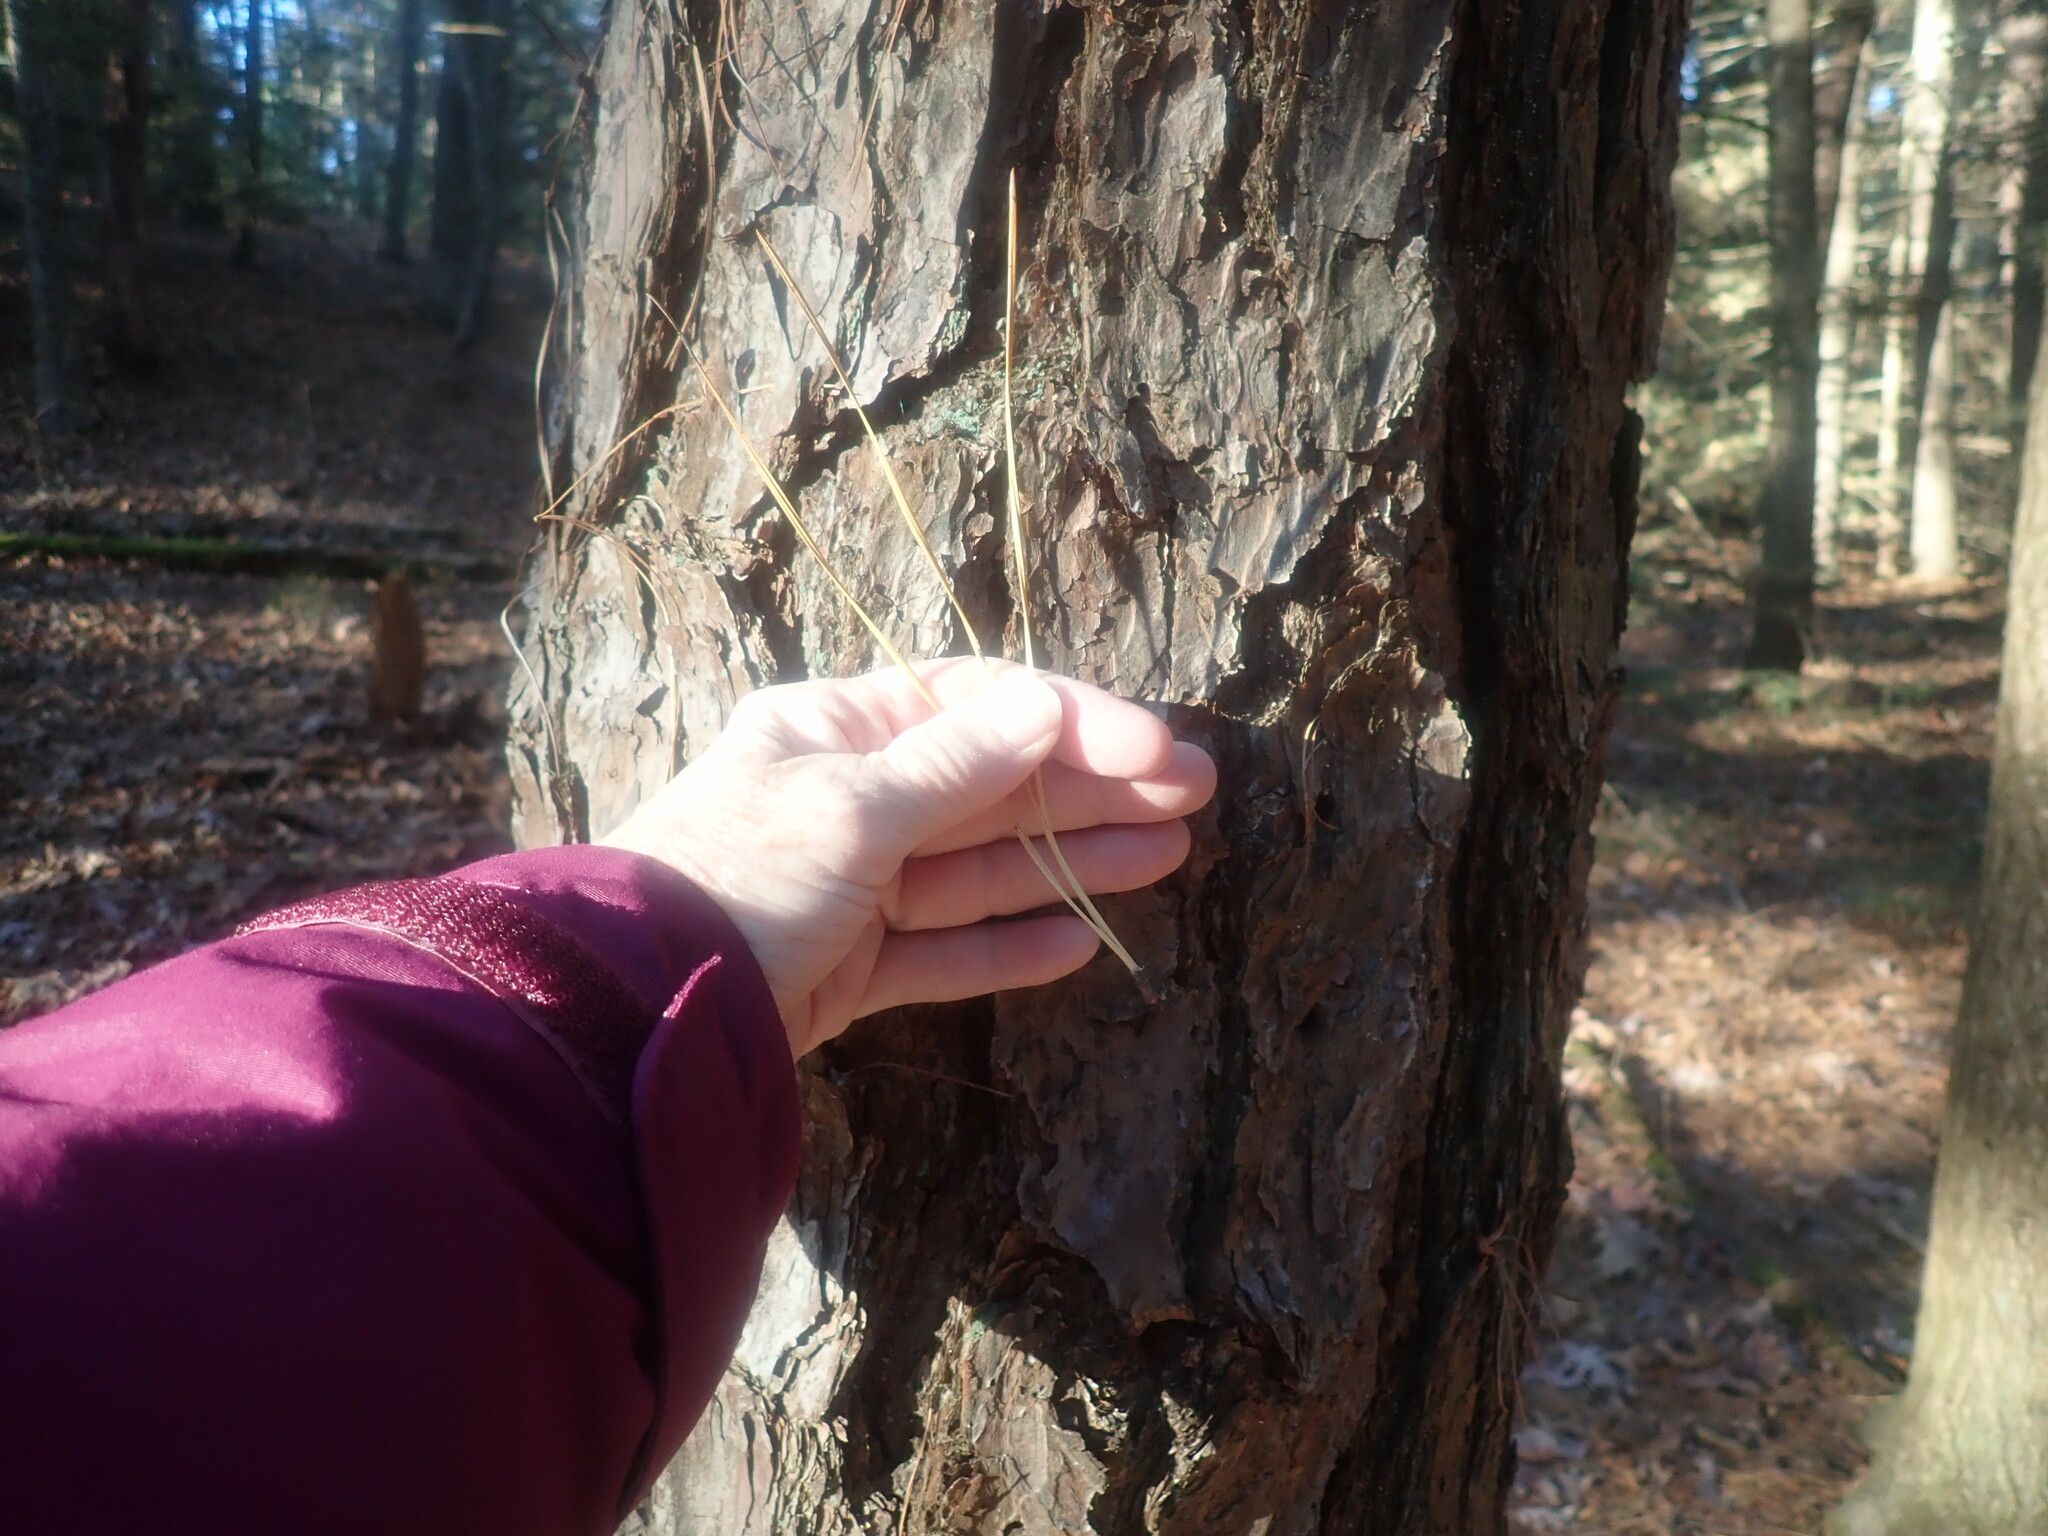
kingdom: Plantae
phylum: Tracheophyta
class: Pinopsida
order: Pinales
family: Pinaceae
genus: Pinus
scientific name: Pinus rigida
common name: Pitch pine
